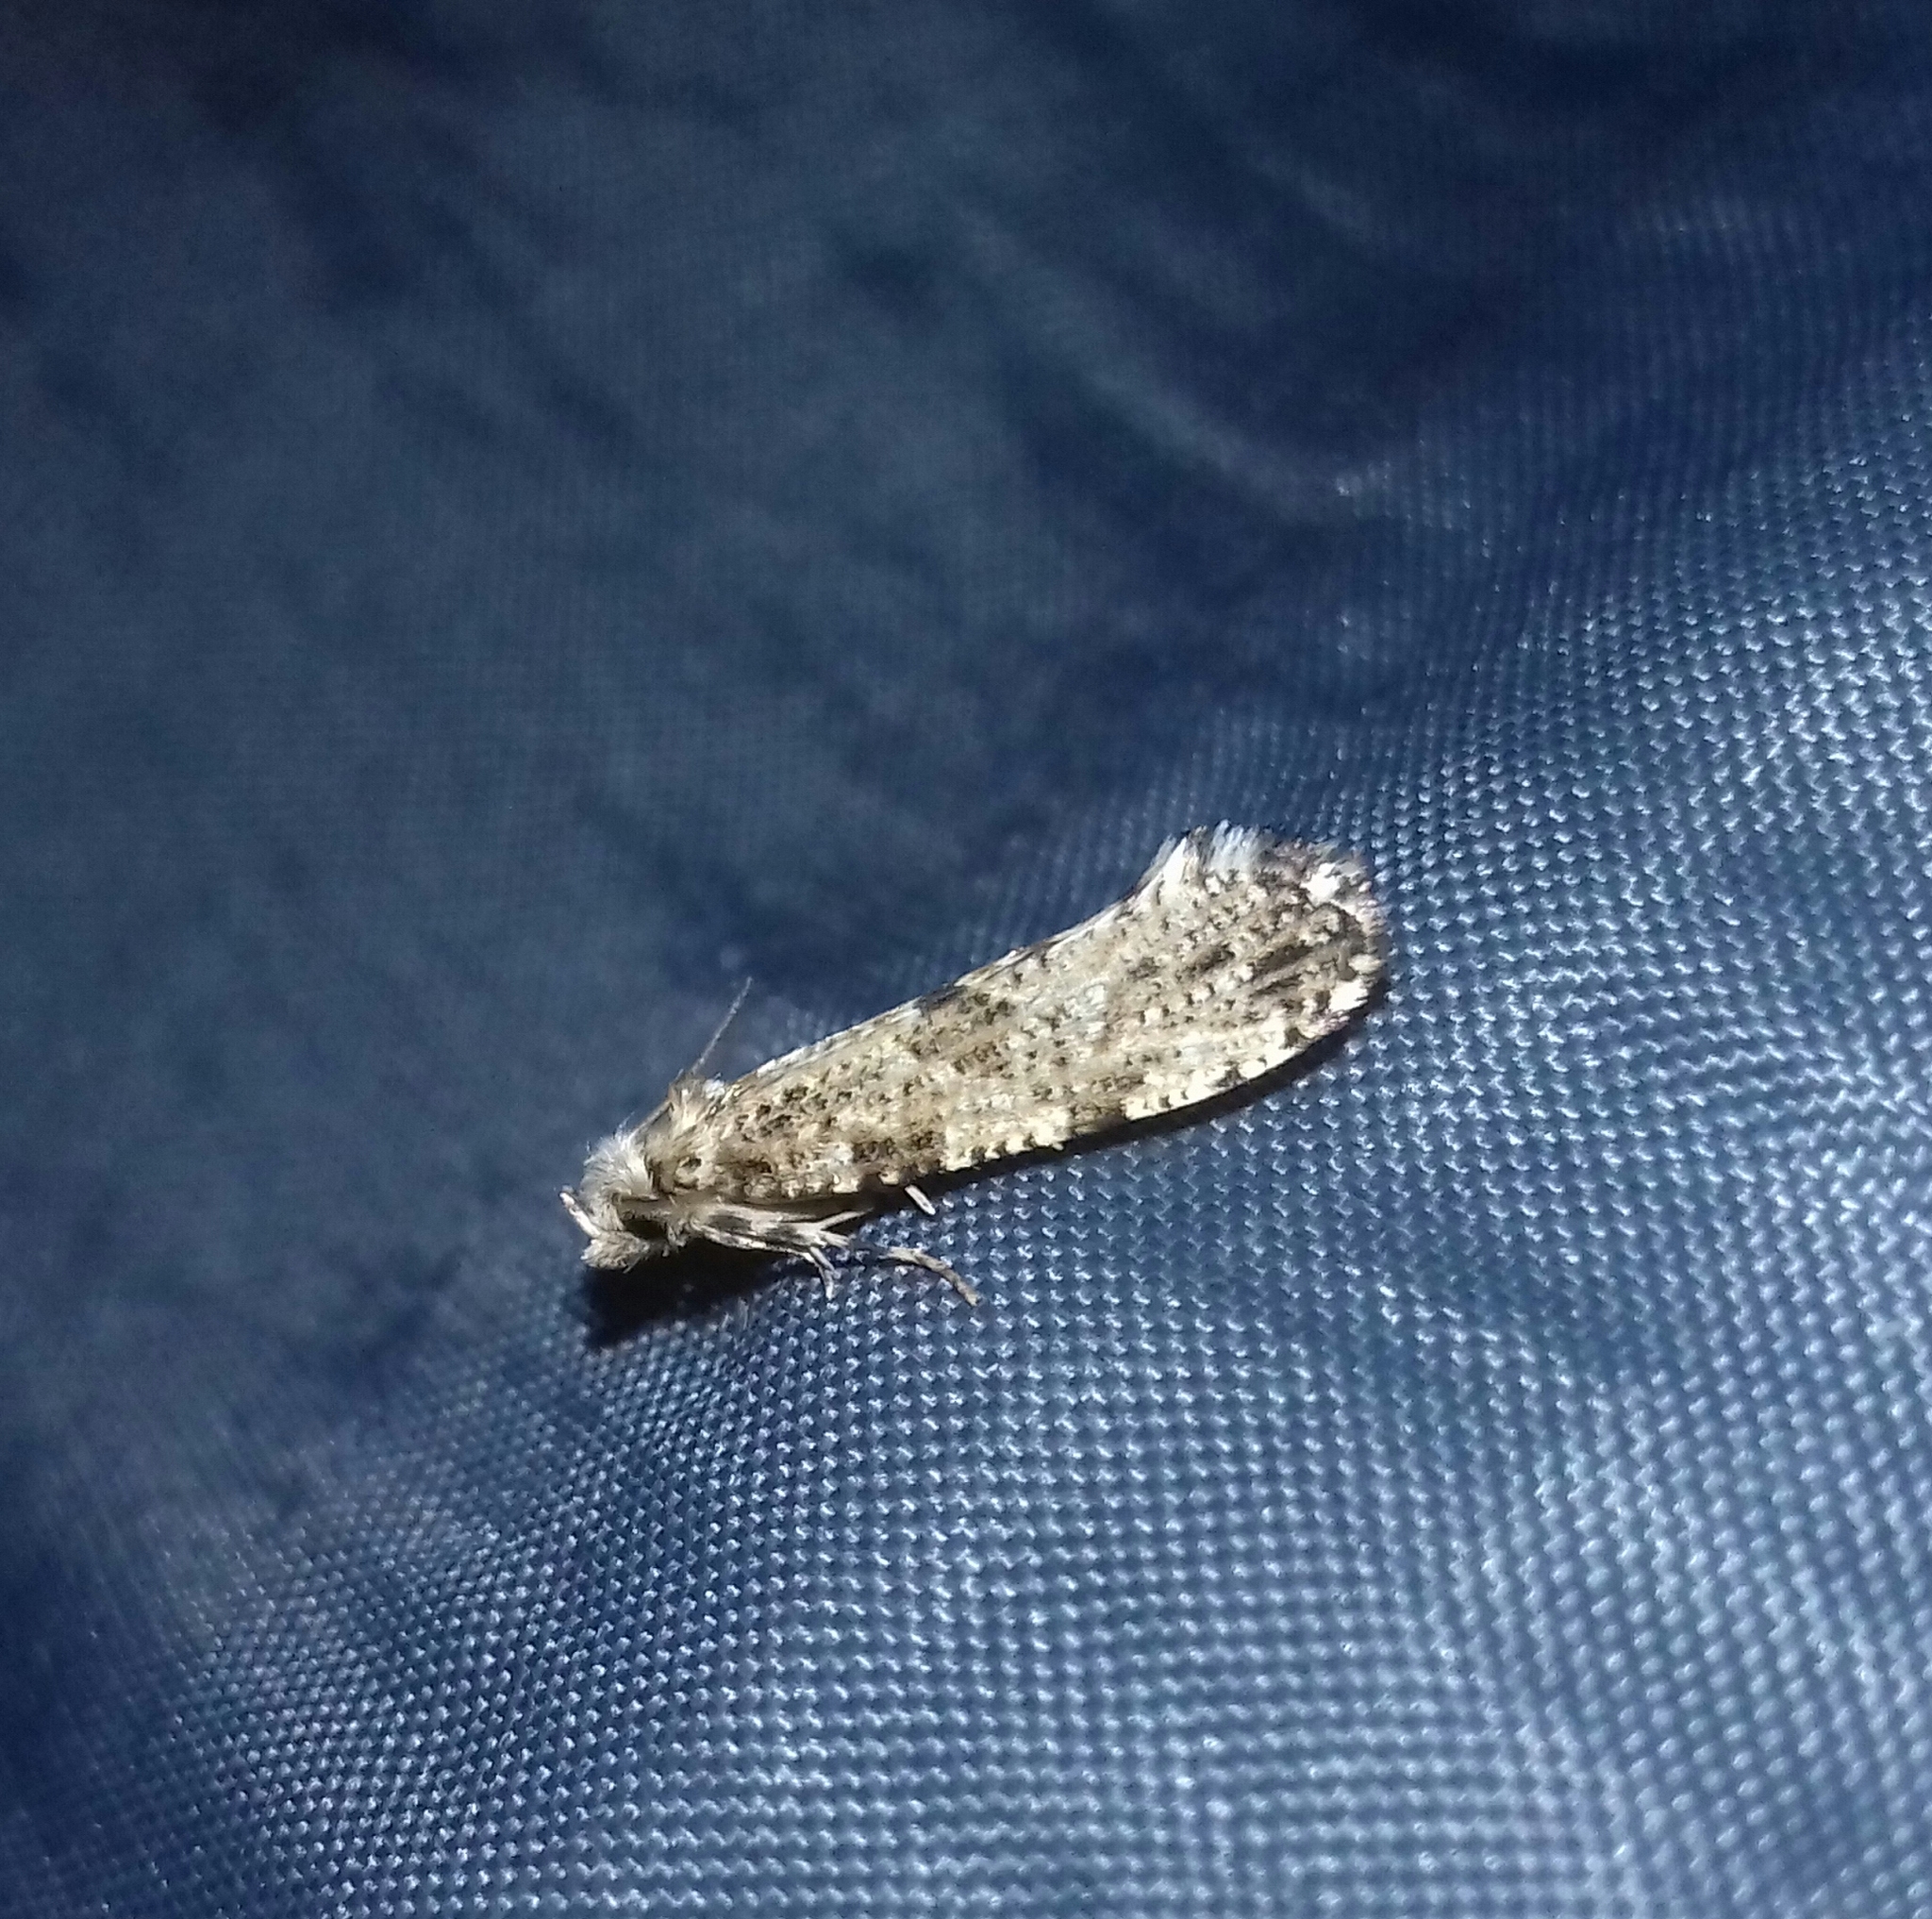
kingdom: Animalia
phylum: Arthropoda
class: Insecta
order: Lepidoptera
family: Tineidae
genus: Morophaga
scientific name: Morophaga choragella
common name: Large clothes
